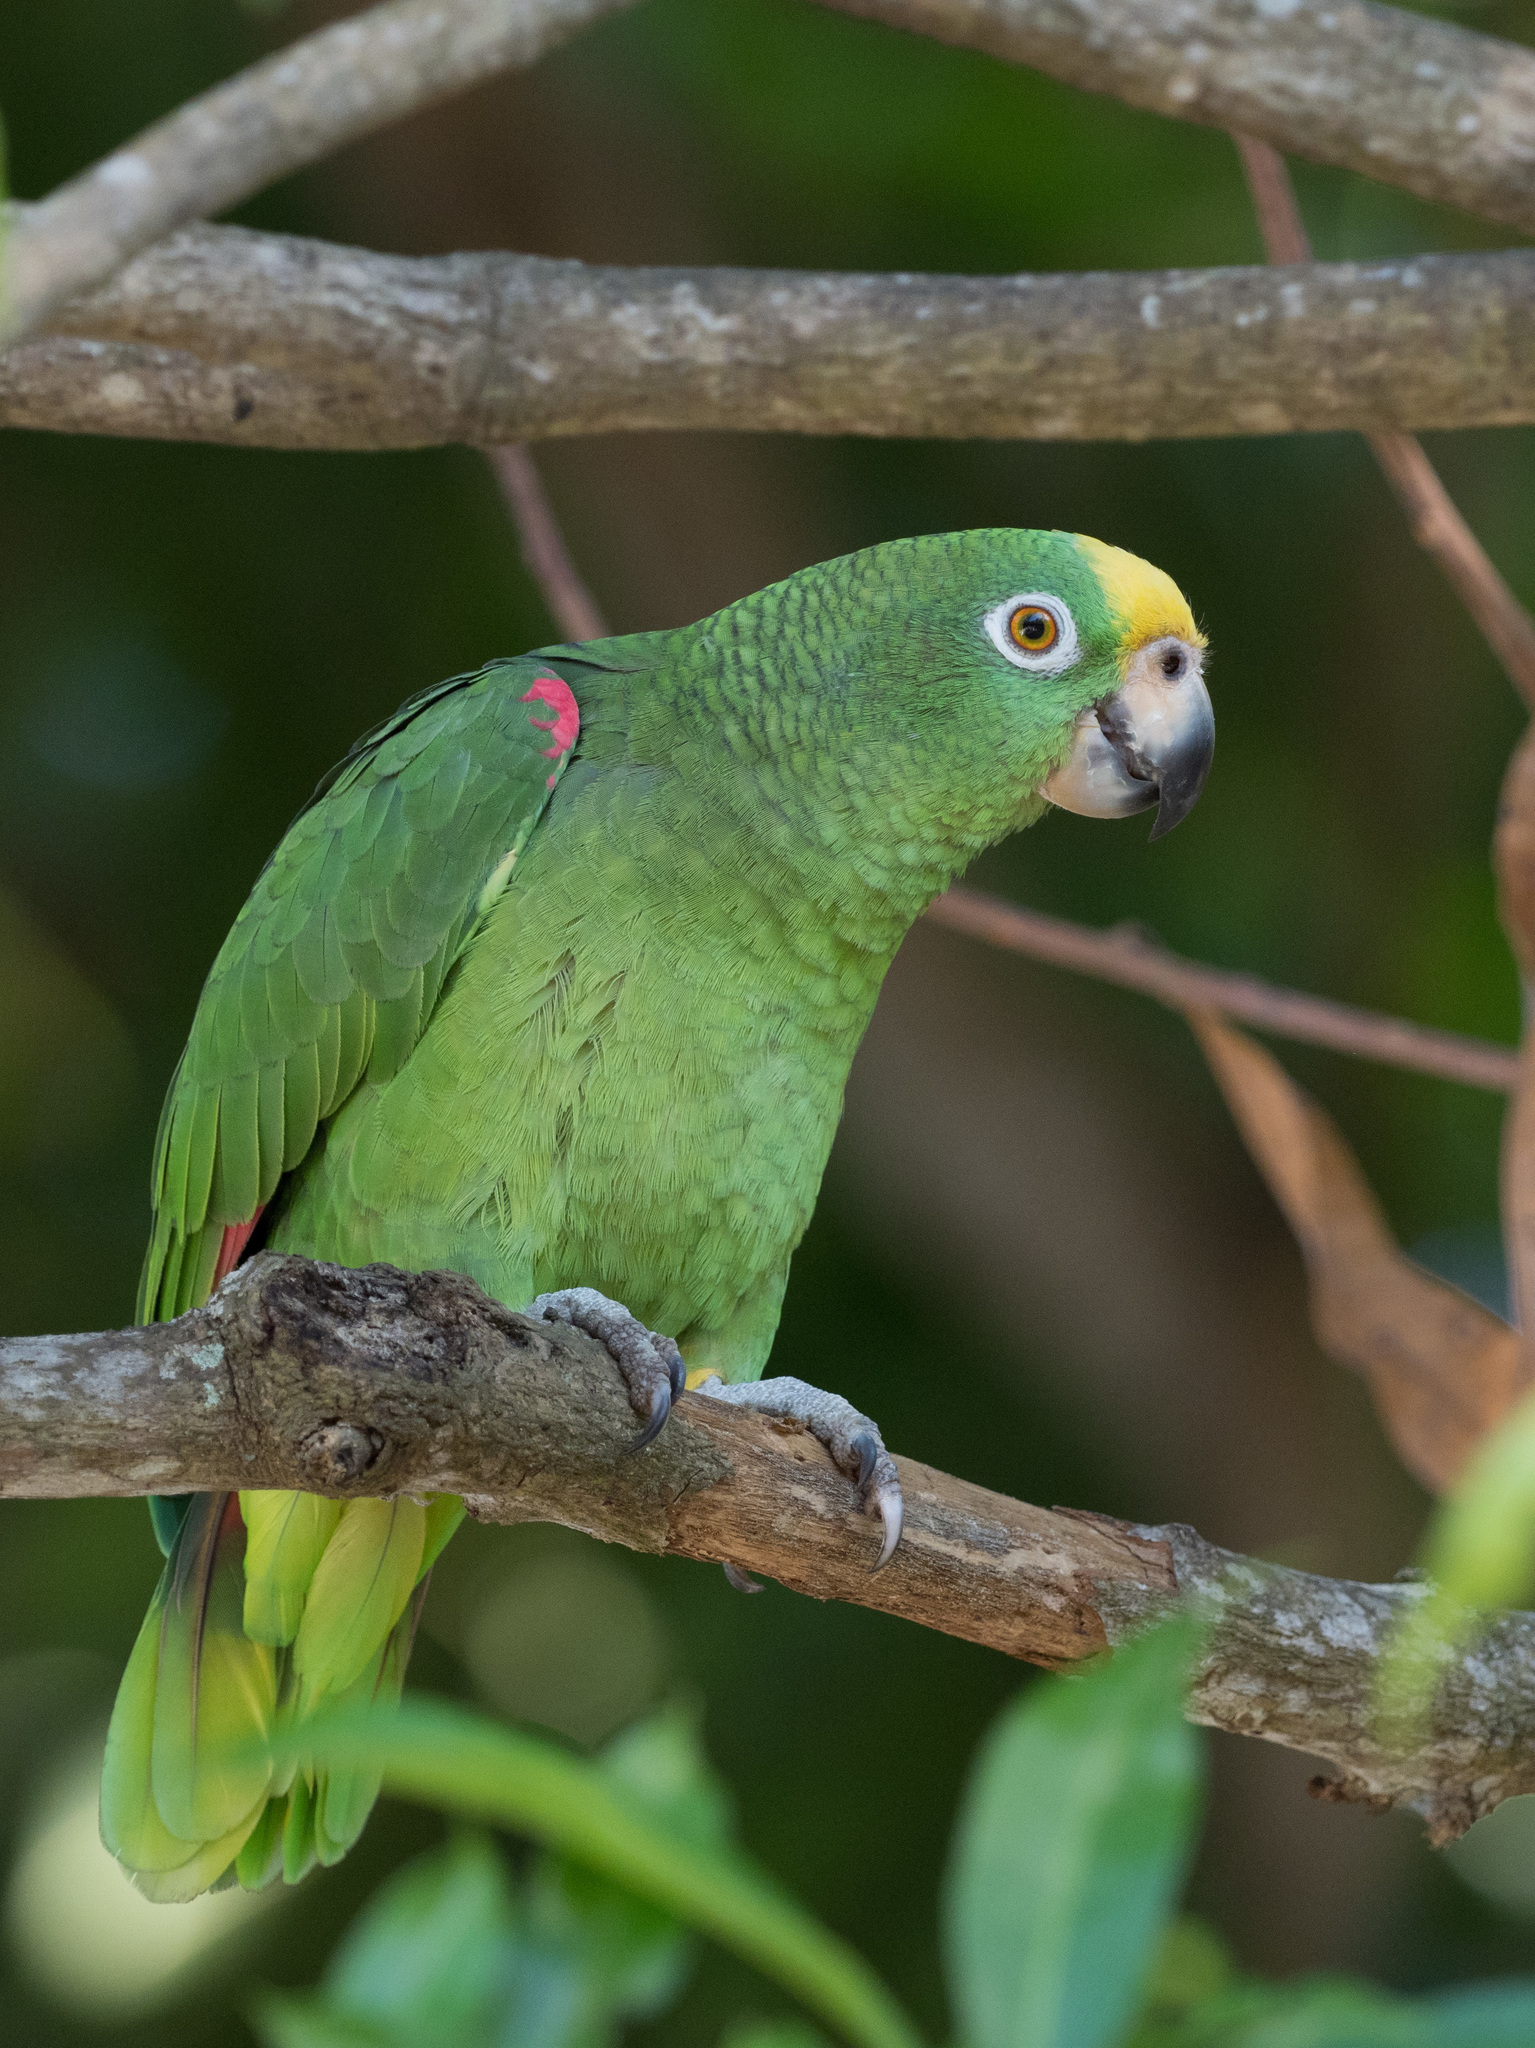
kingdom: Animalia
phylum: Chordata
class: Aves
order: Psittaciformes
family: Psittacidae
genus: Amazona
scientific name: Amazona ochrocephala
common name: Yellow-crowned amazon
